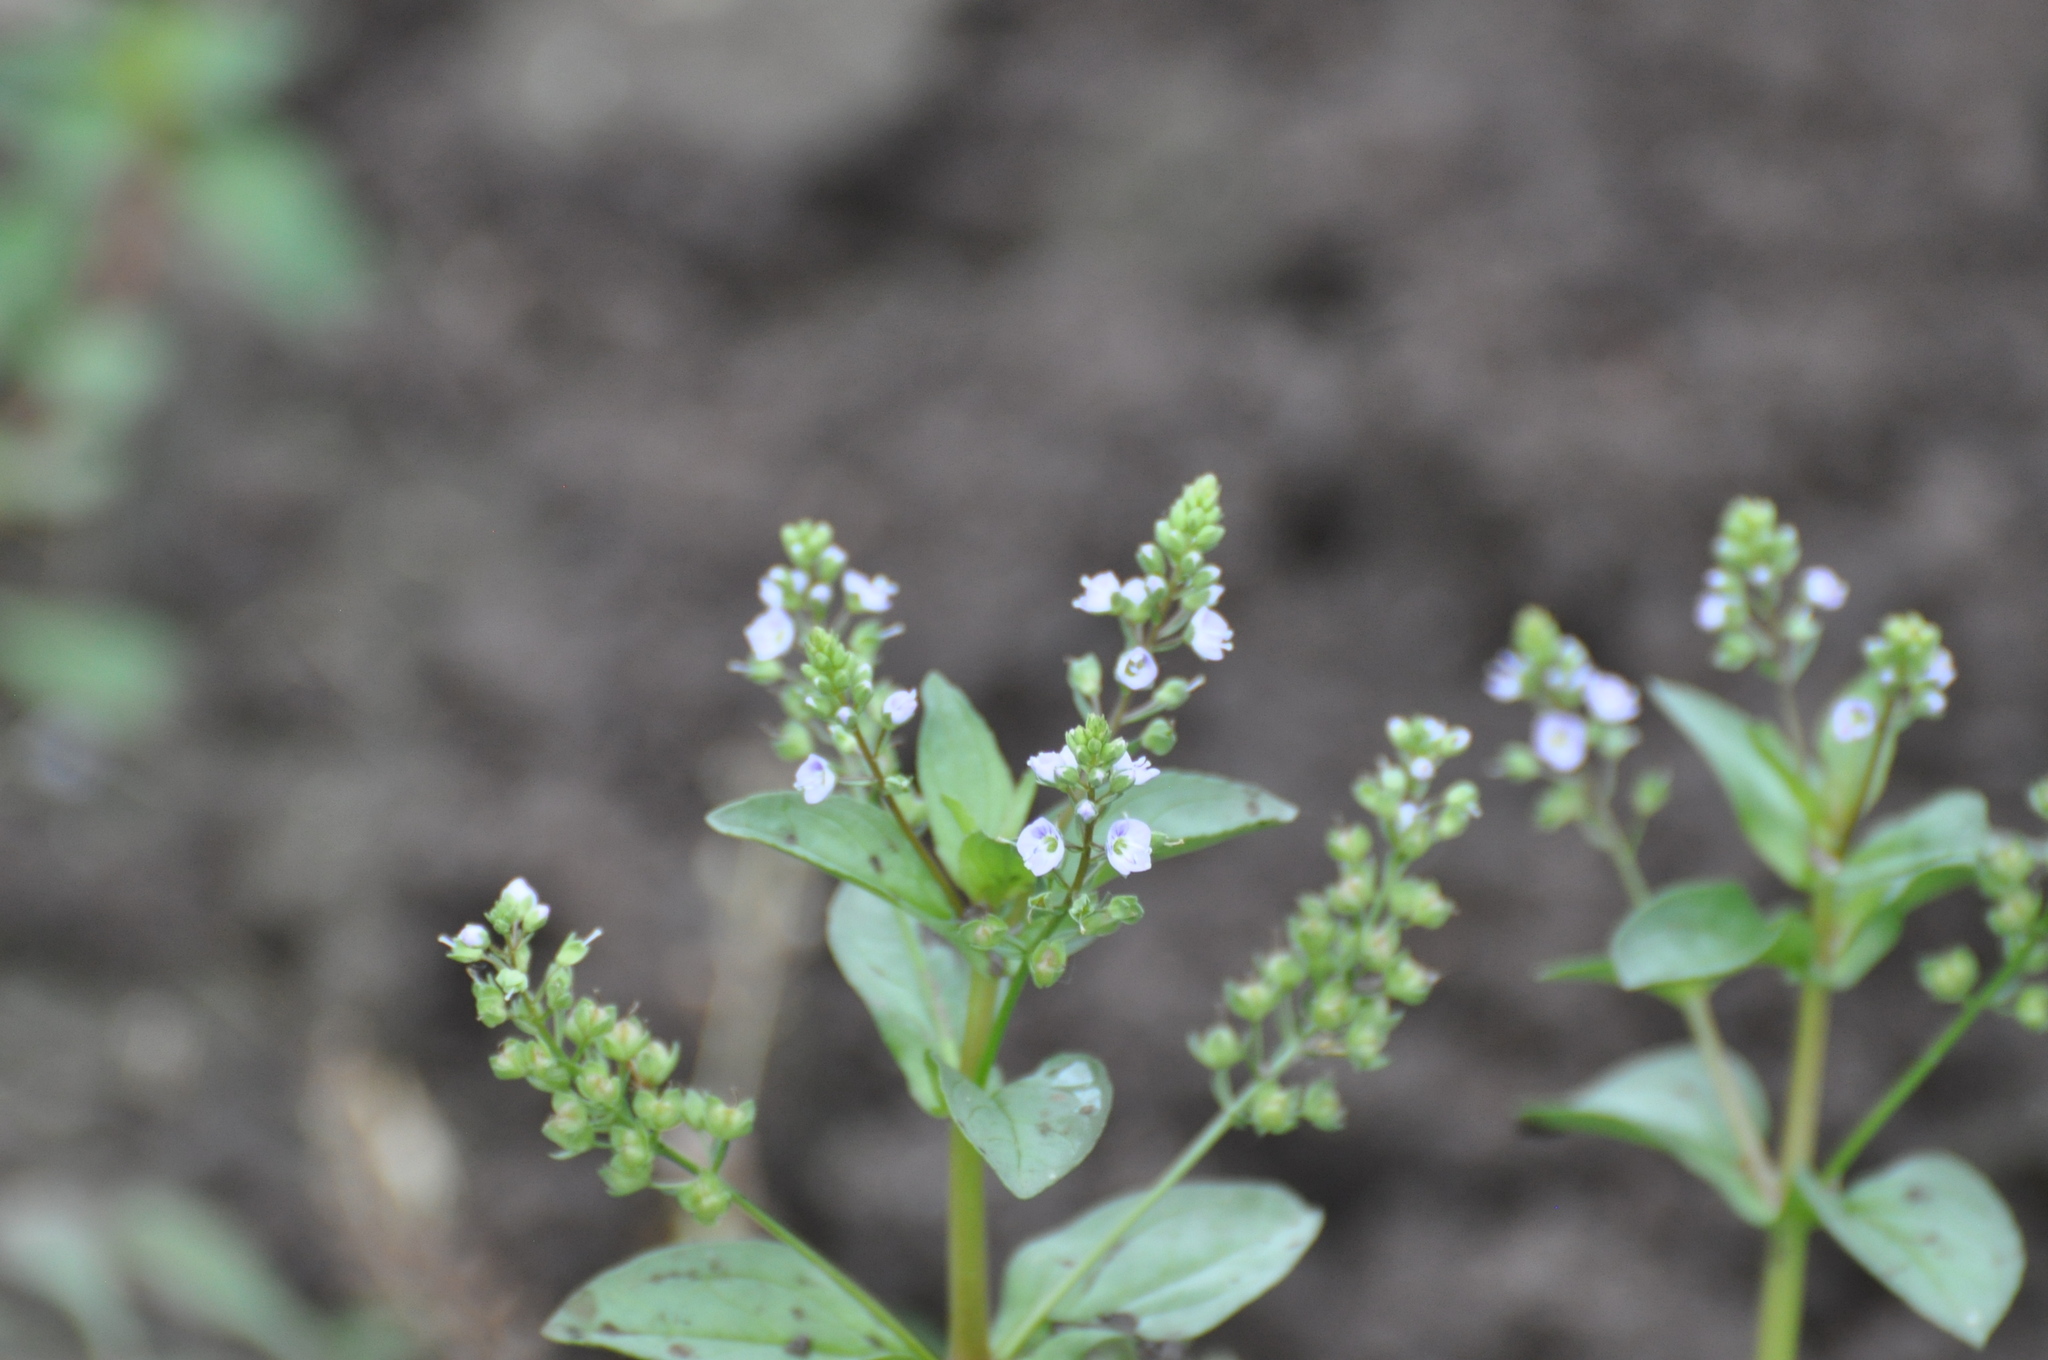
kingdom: Plantae
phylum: Tracheophyta
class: Magnoliopsida
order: Lamiales
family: Plantaginaceae
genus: Veronica
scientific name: Veronica anagallis-aquatica
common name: Water speedwell
